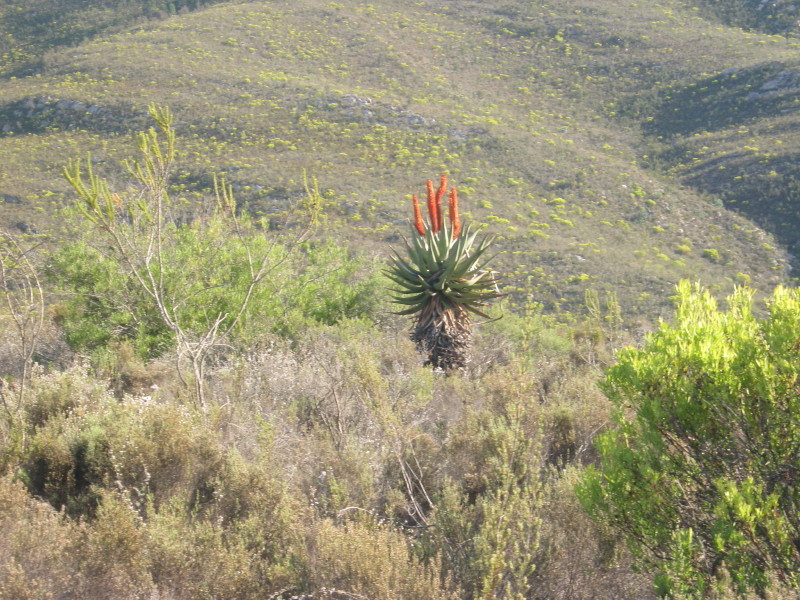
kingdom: Plantae
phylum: Tracheophyta
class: Liliopsida
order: Asparagales
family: Asphodelaceae
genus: Aloe
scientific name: Aloe ferox
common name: Bitter aloe
